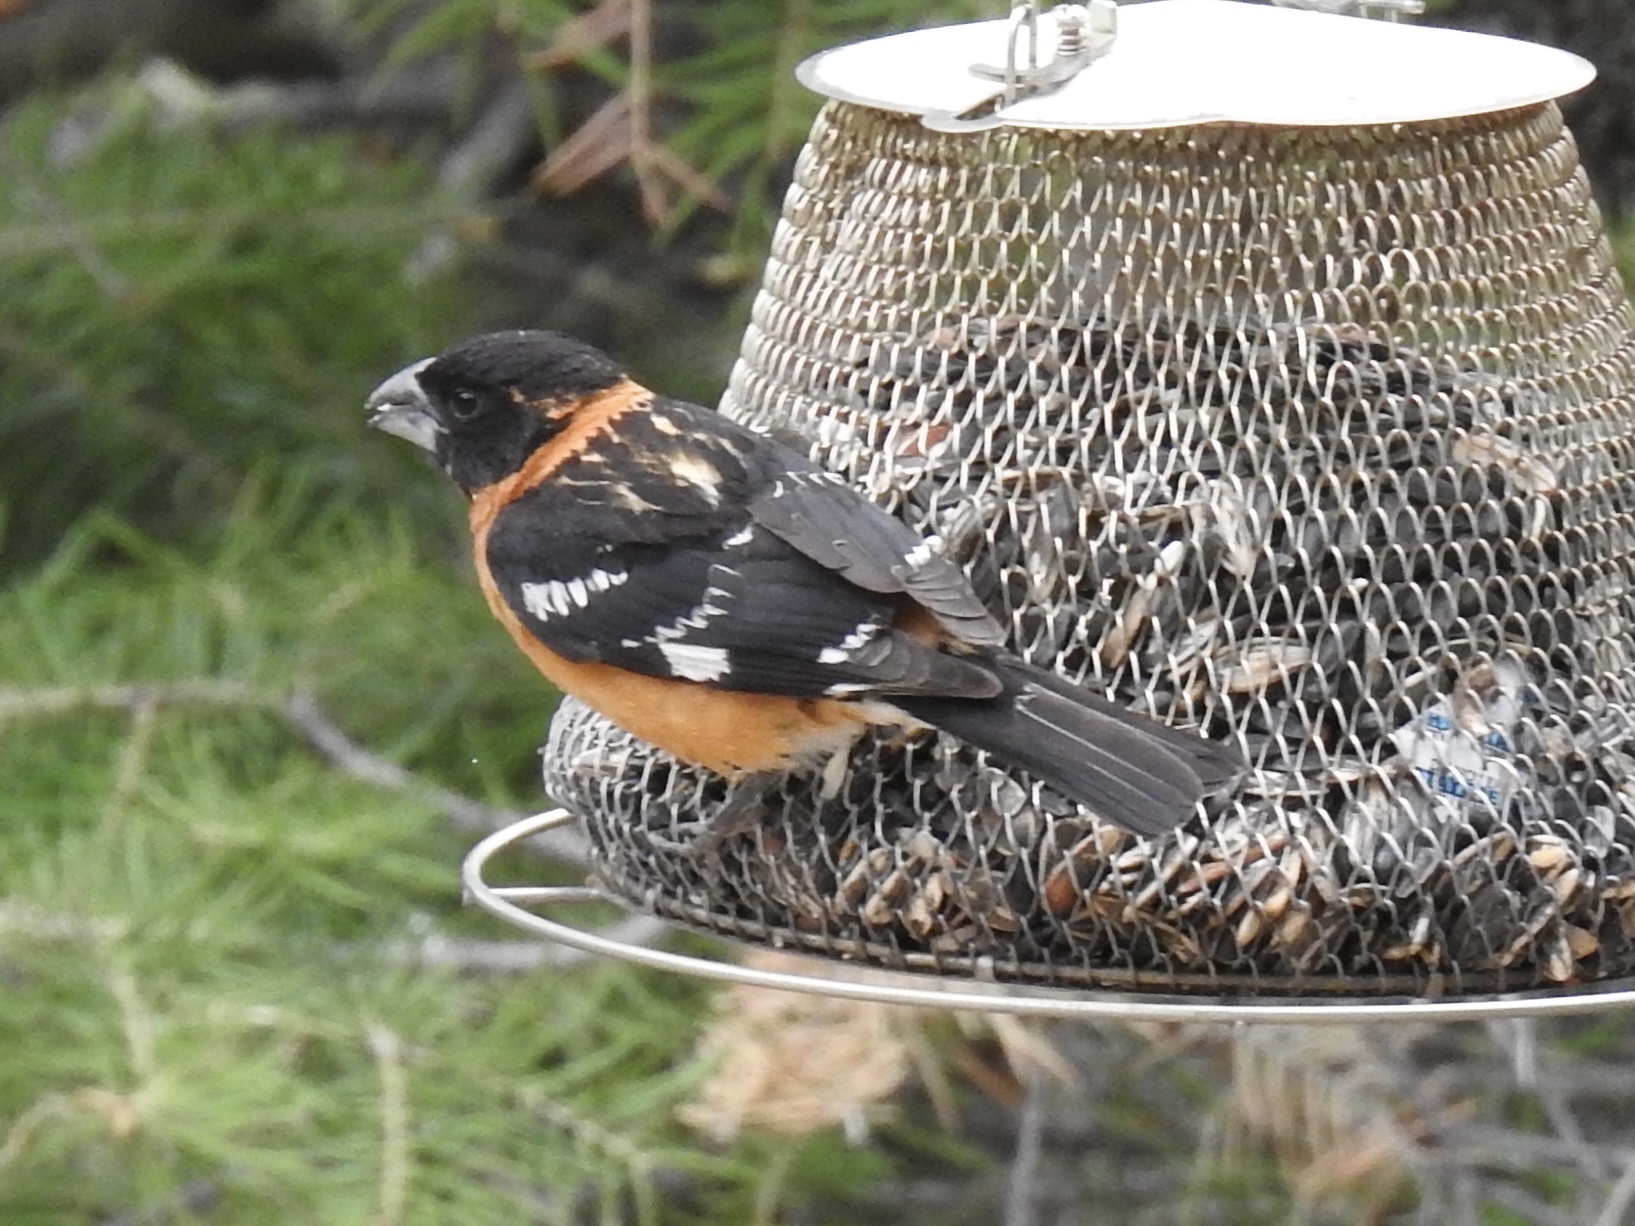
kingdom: Animalia
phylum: Chordata
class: Aves
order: Passeriformes
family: Cardinalidae
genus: Pheucticus
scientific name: Pheucticus melanocephalus
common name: Black-headed grosbeak
